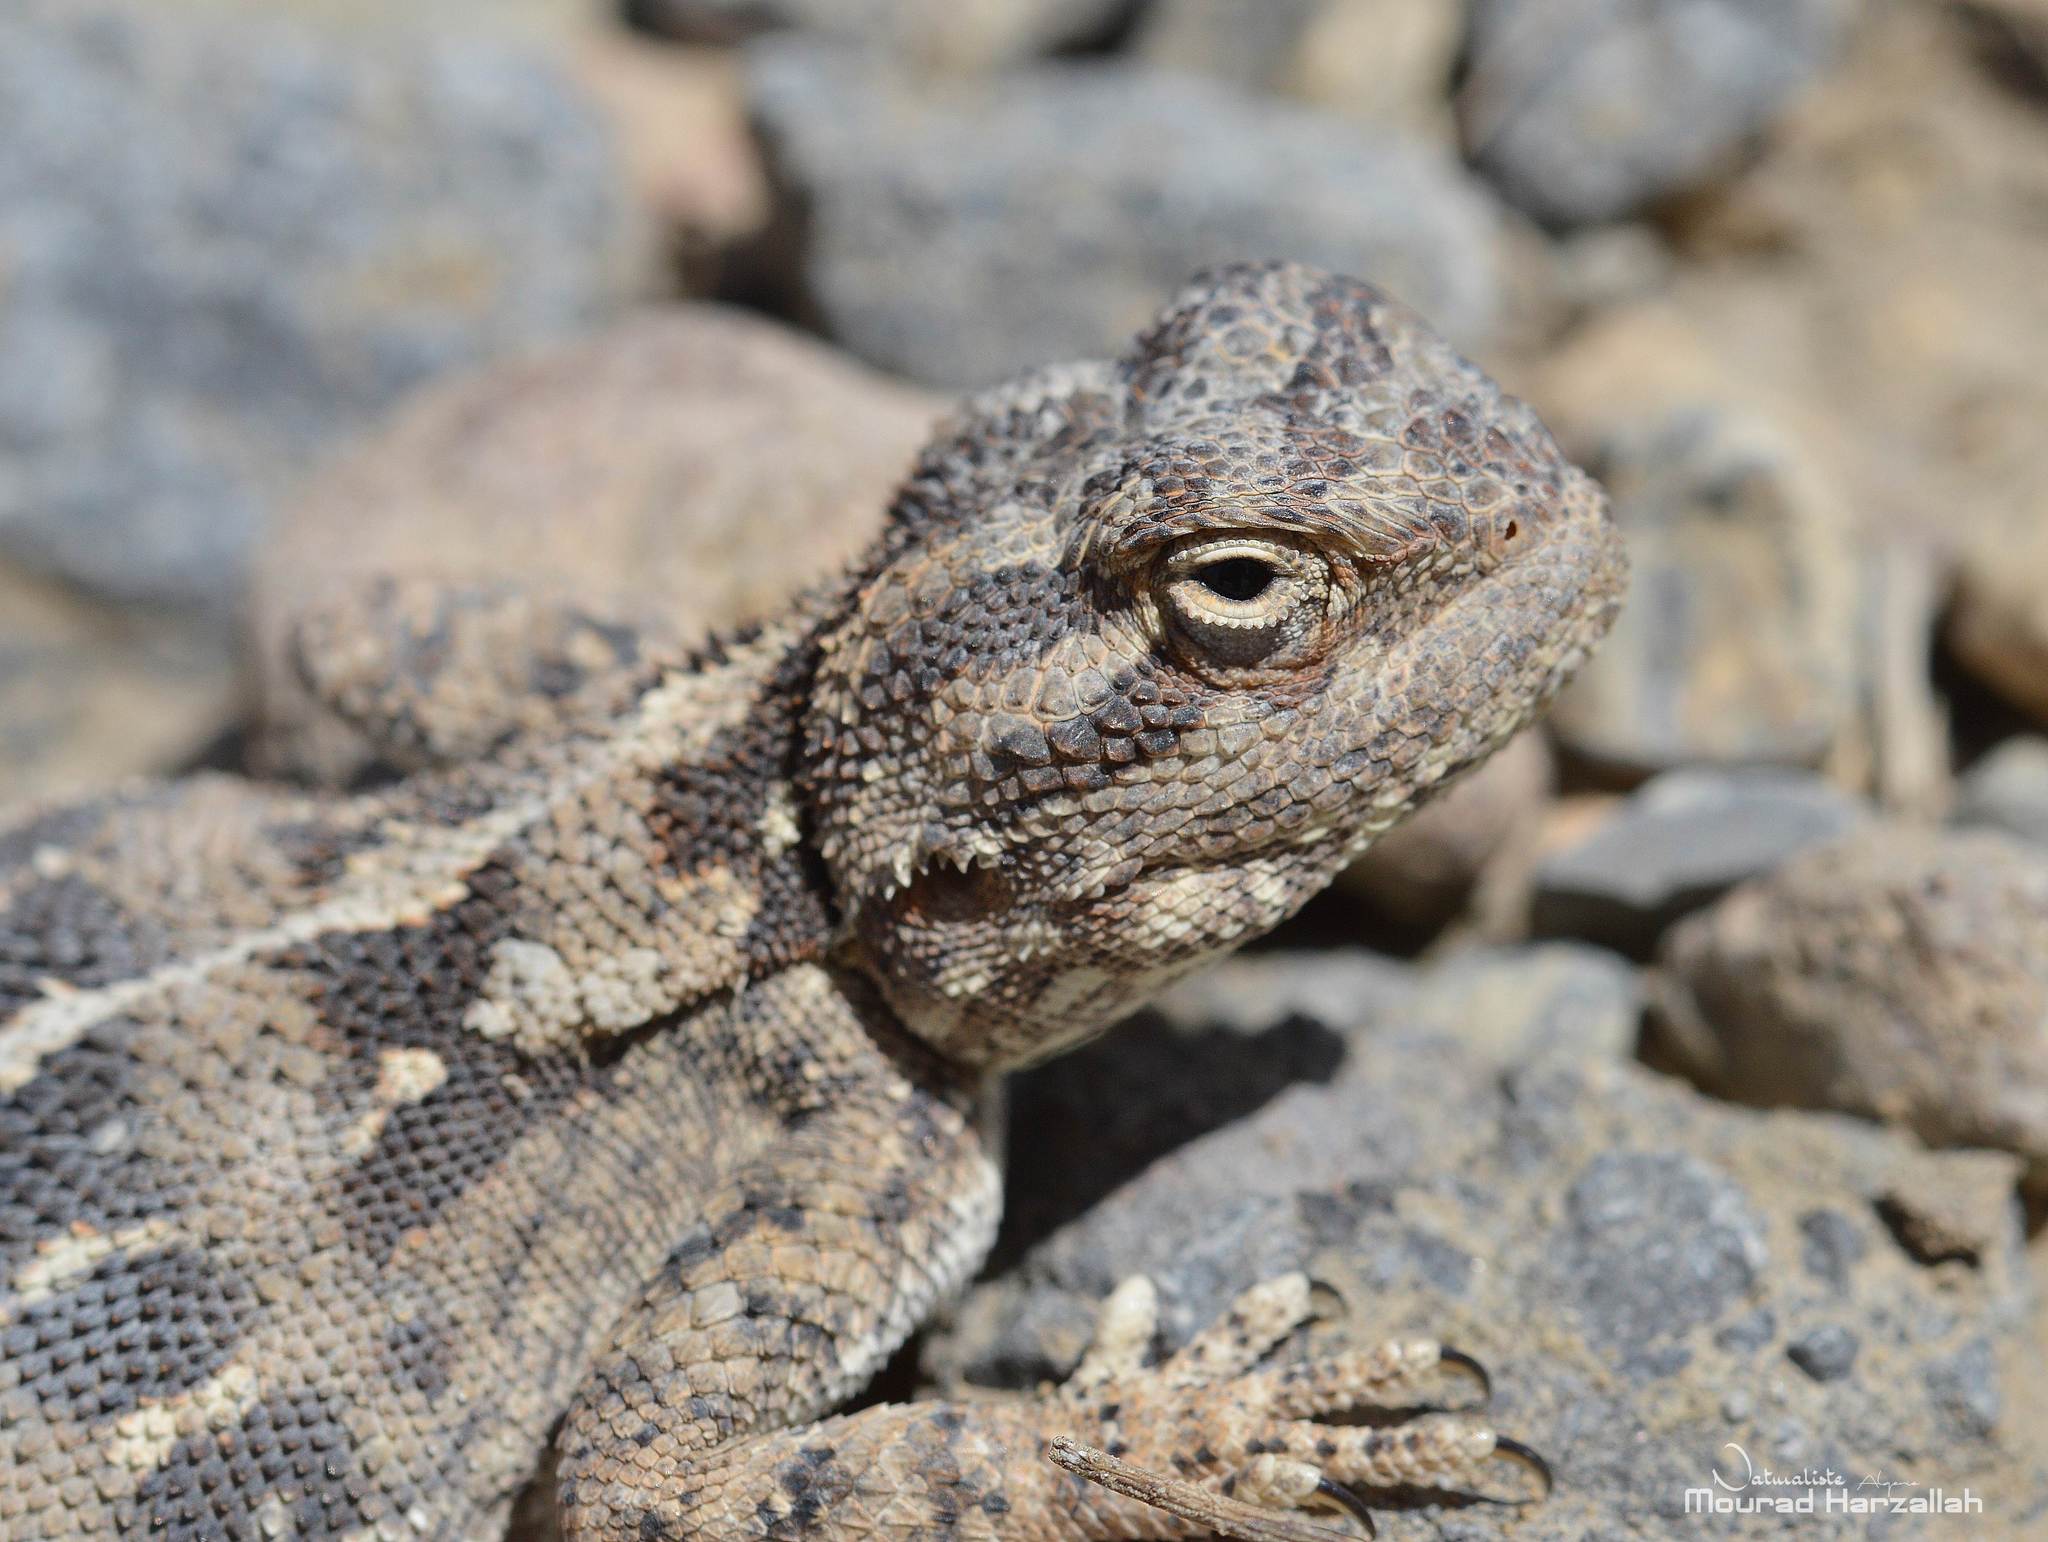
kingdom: Animalia
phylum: Chordata
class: Squamata
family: Agamidae
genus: Trapelus
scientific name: Trapelus mutabilis
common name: Desert agama
